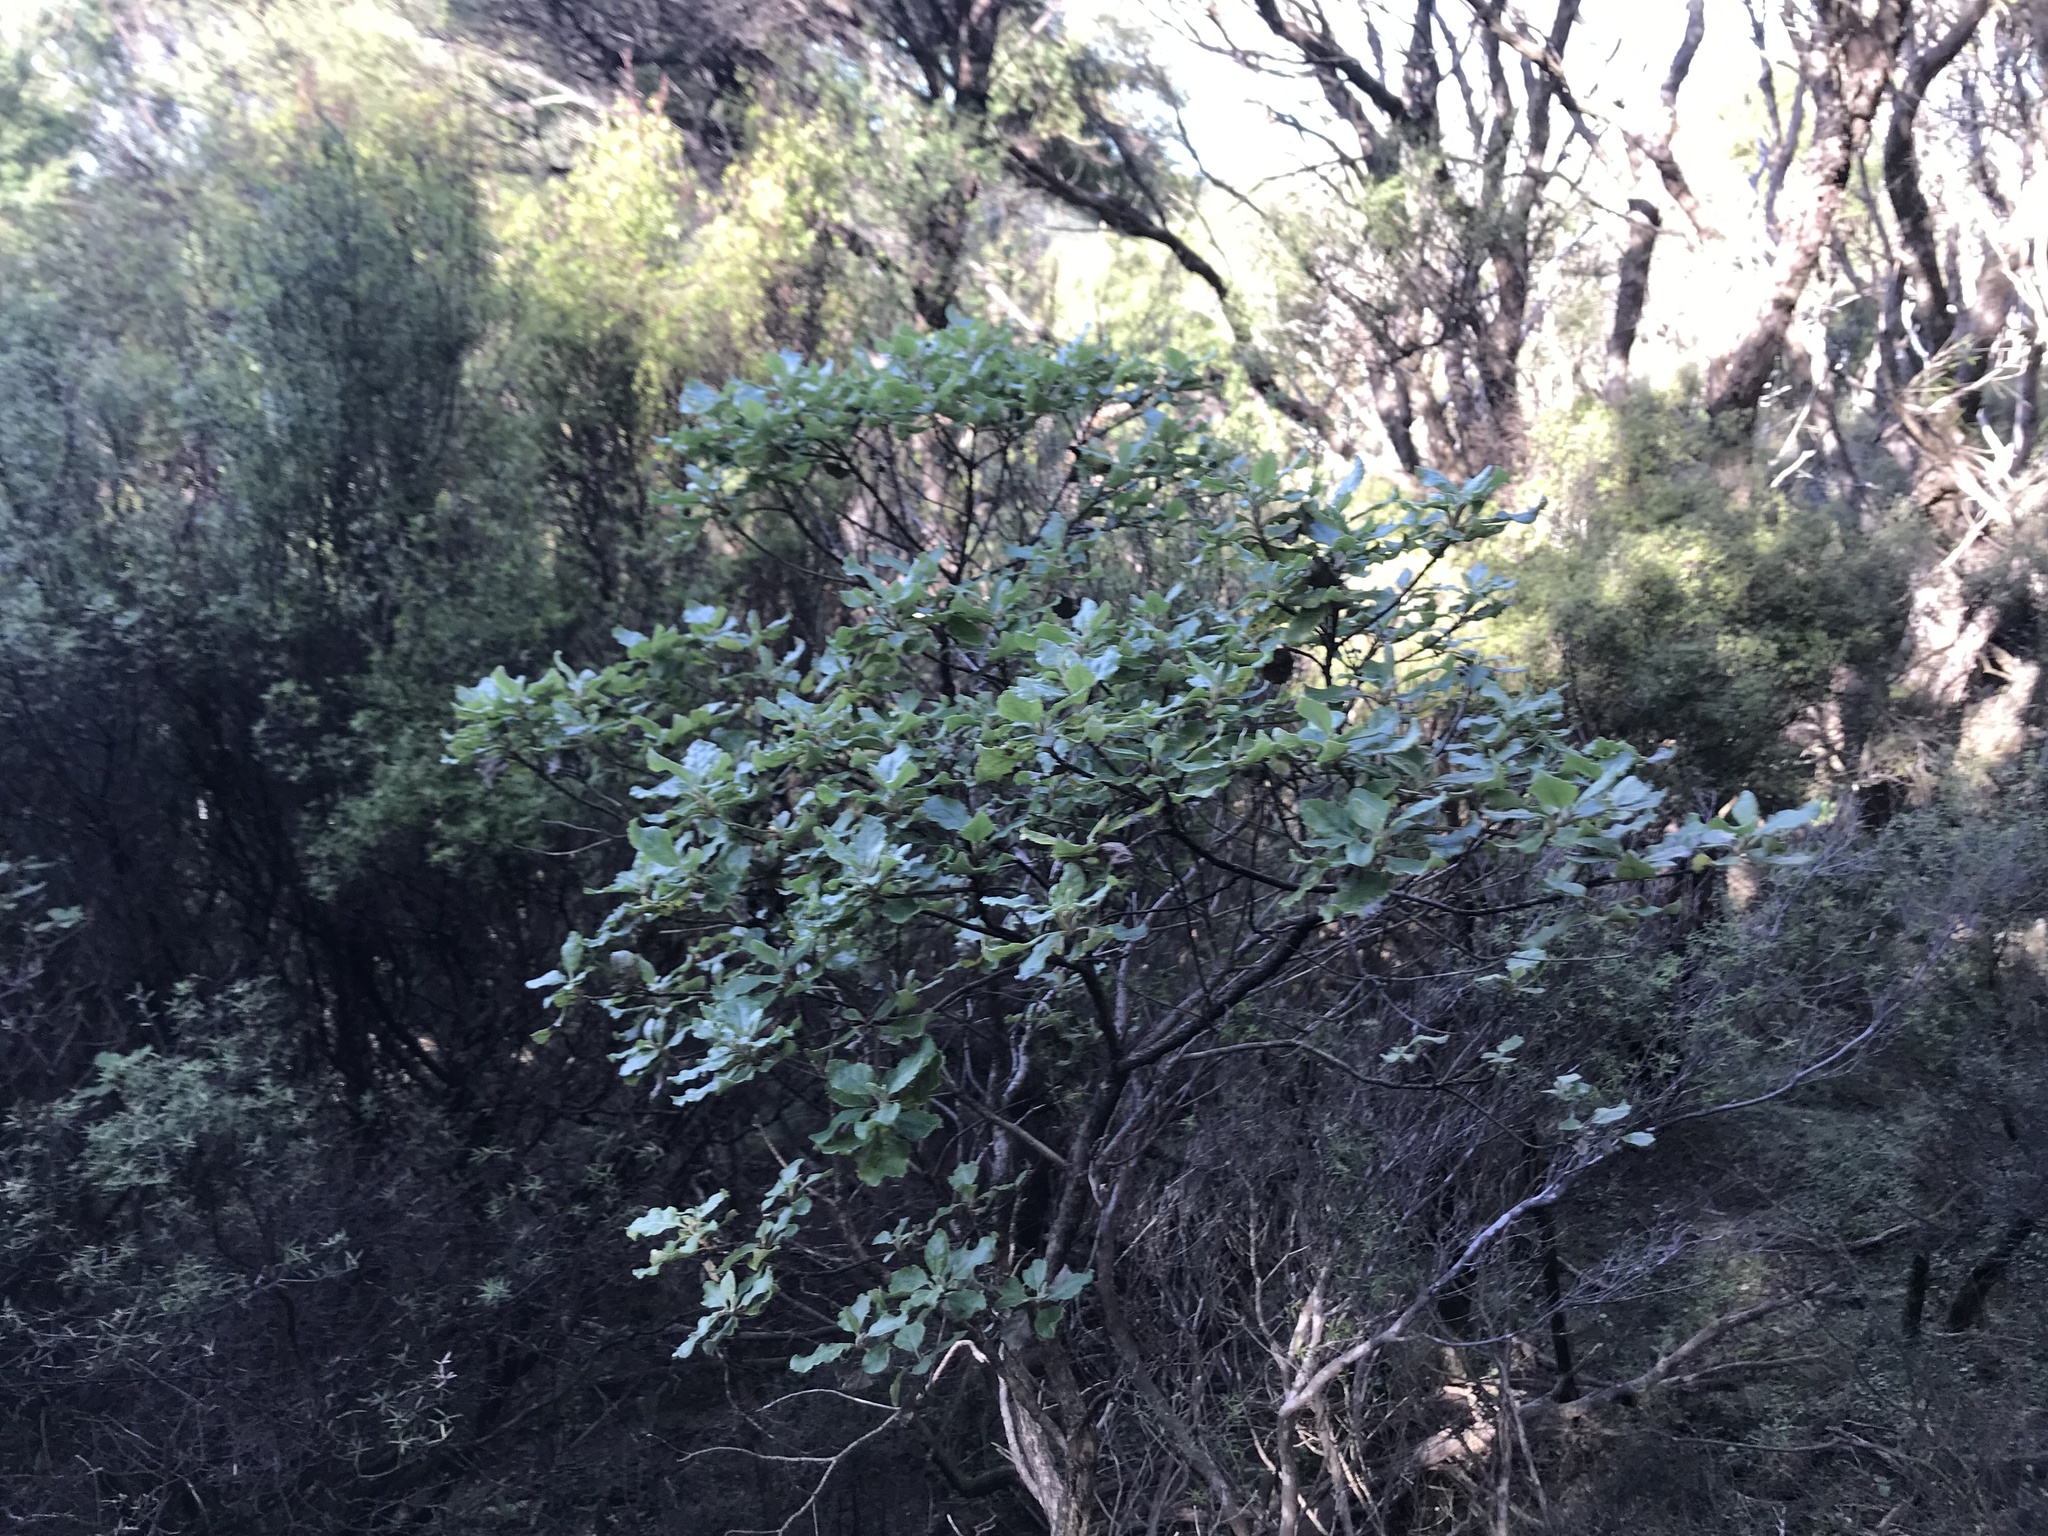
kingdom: Plantae
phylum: Tracheophyta
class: Magnoliopsida
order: Asterales
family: Asteraceae
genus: Brachyglottis
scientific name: Brachyglottis pentacopa
